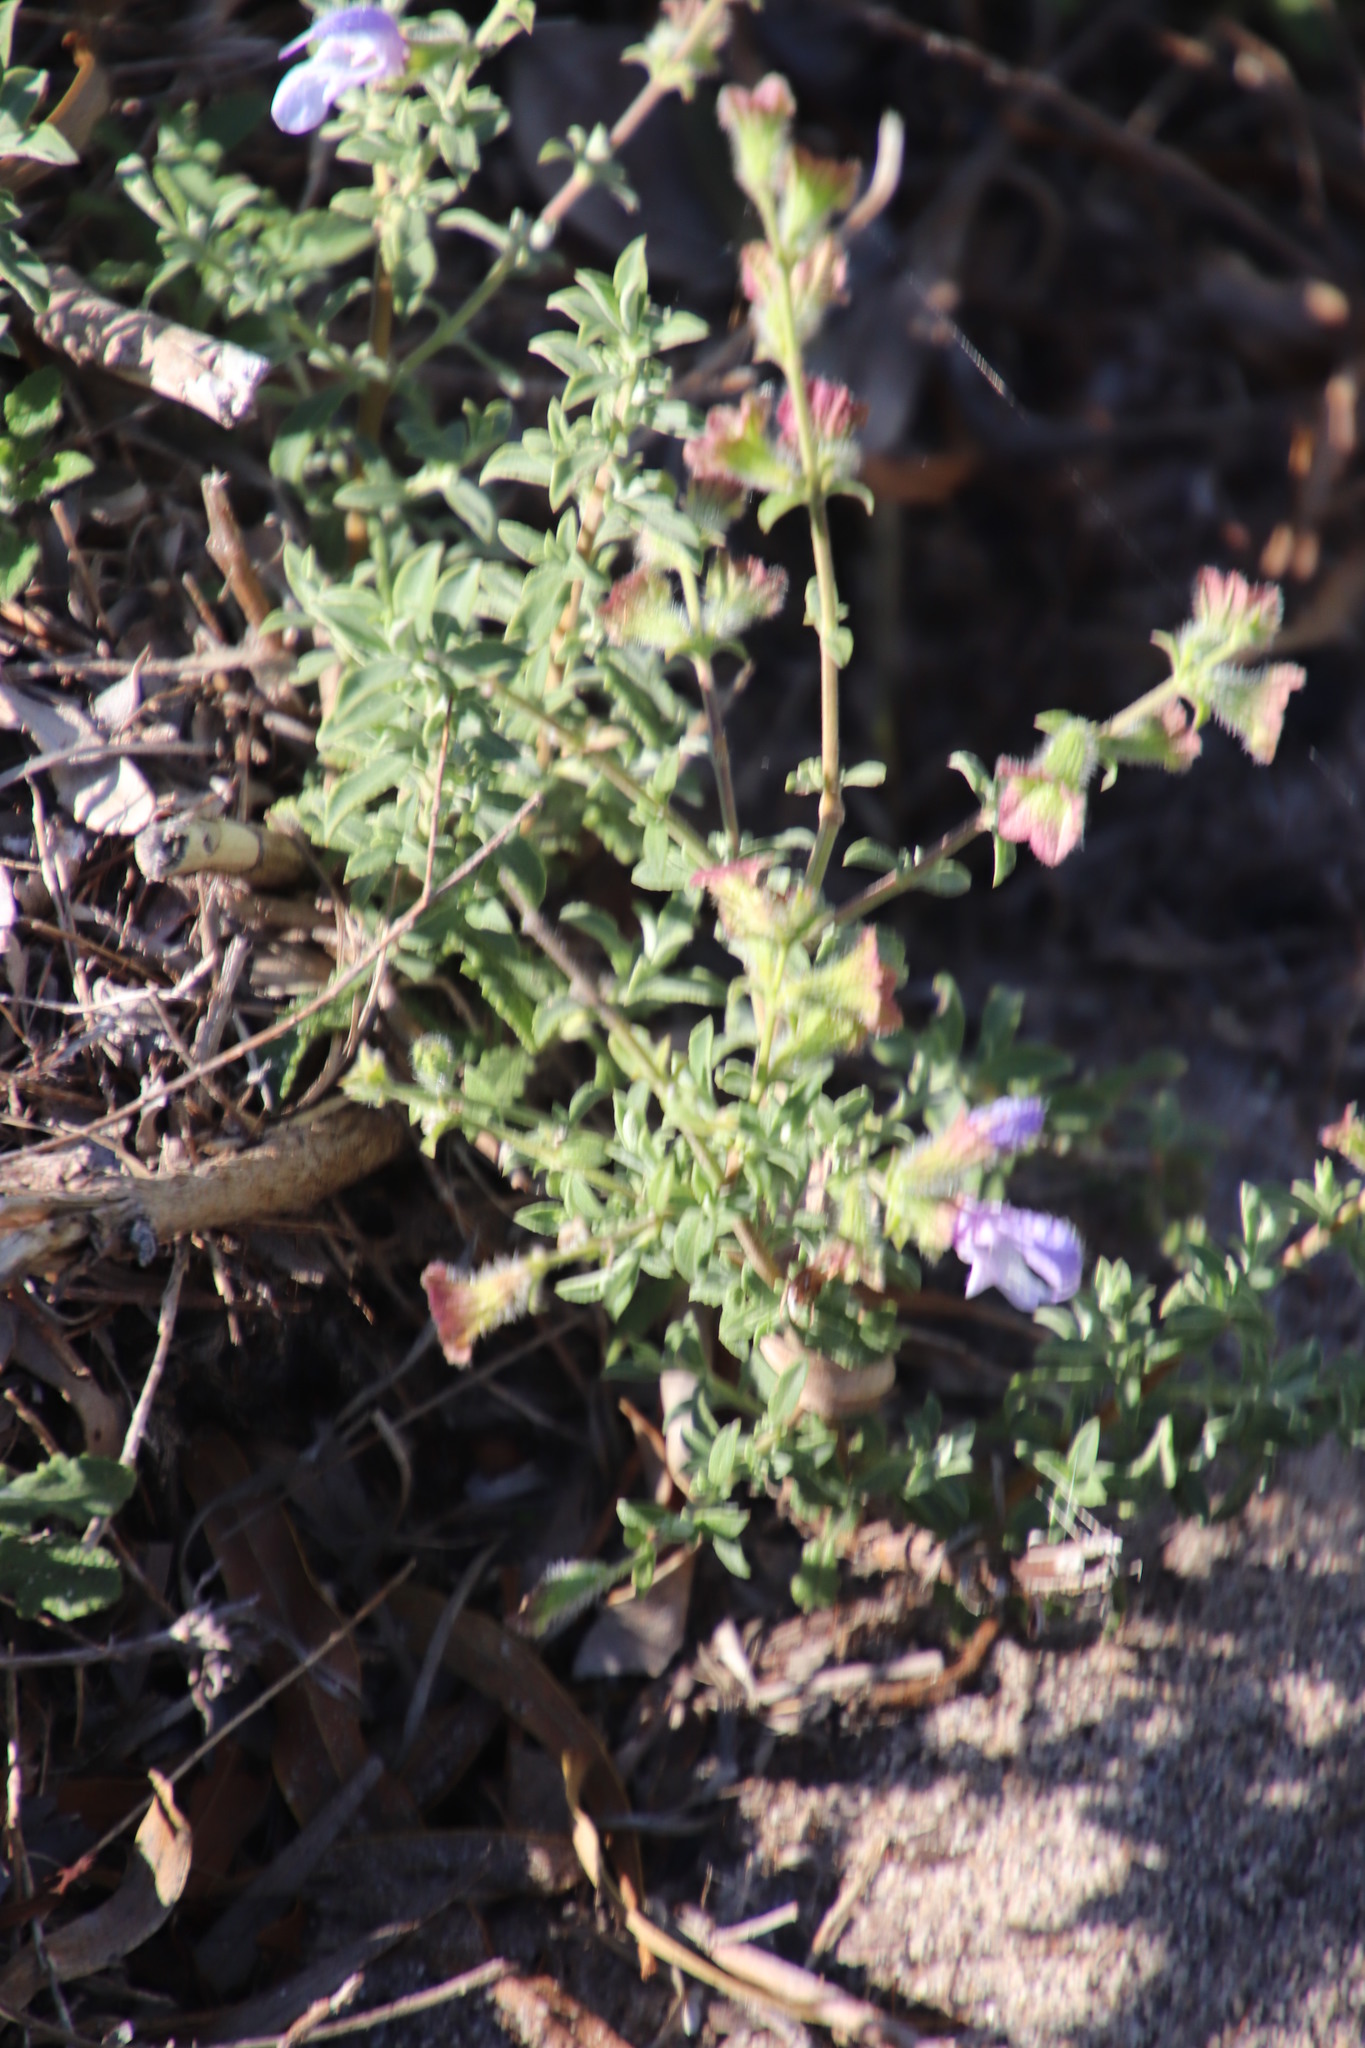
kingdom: Plantae
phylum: Tracheophyta
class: Magnoliopsida
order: Lamiales
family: Lamiaceae
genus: Salvia
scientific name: Salvia africana
